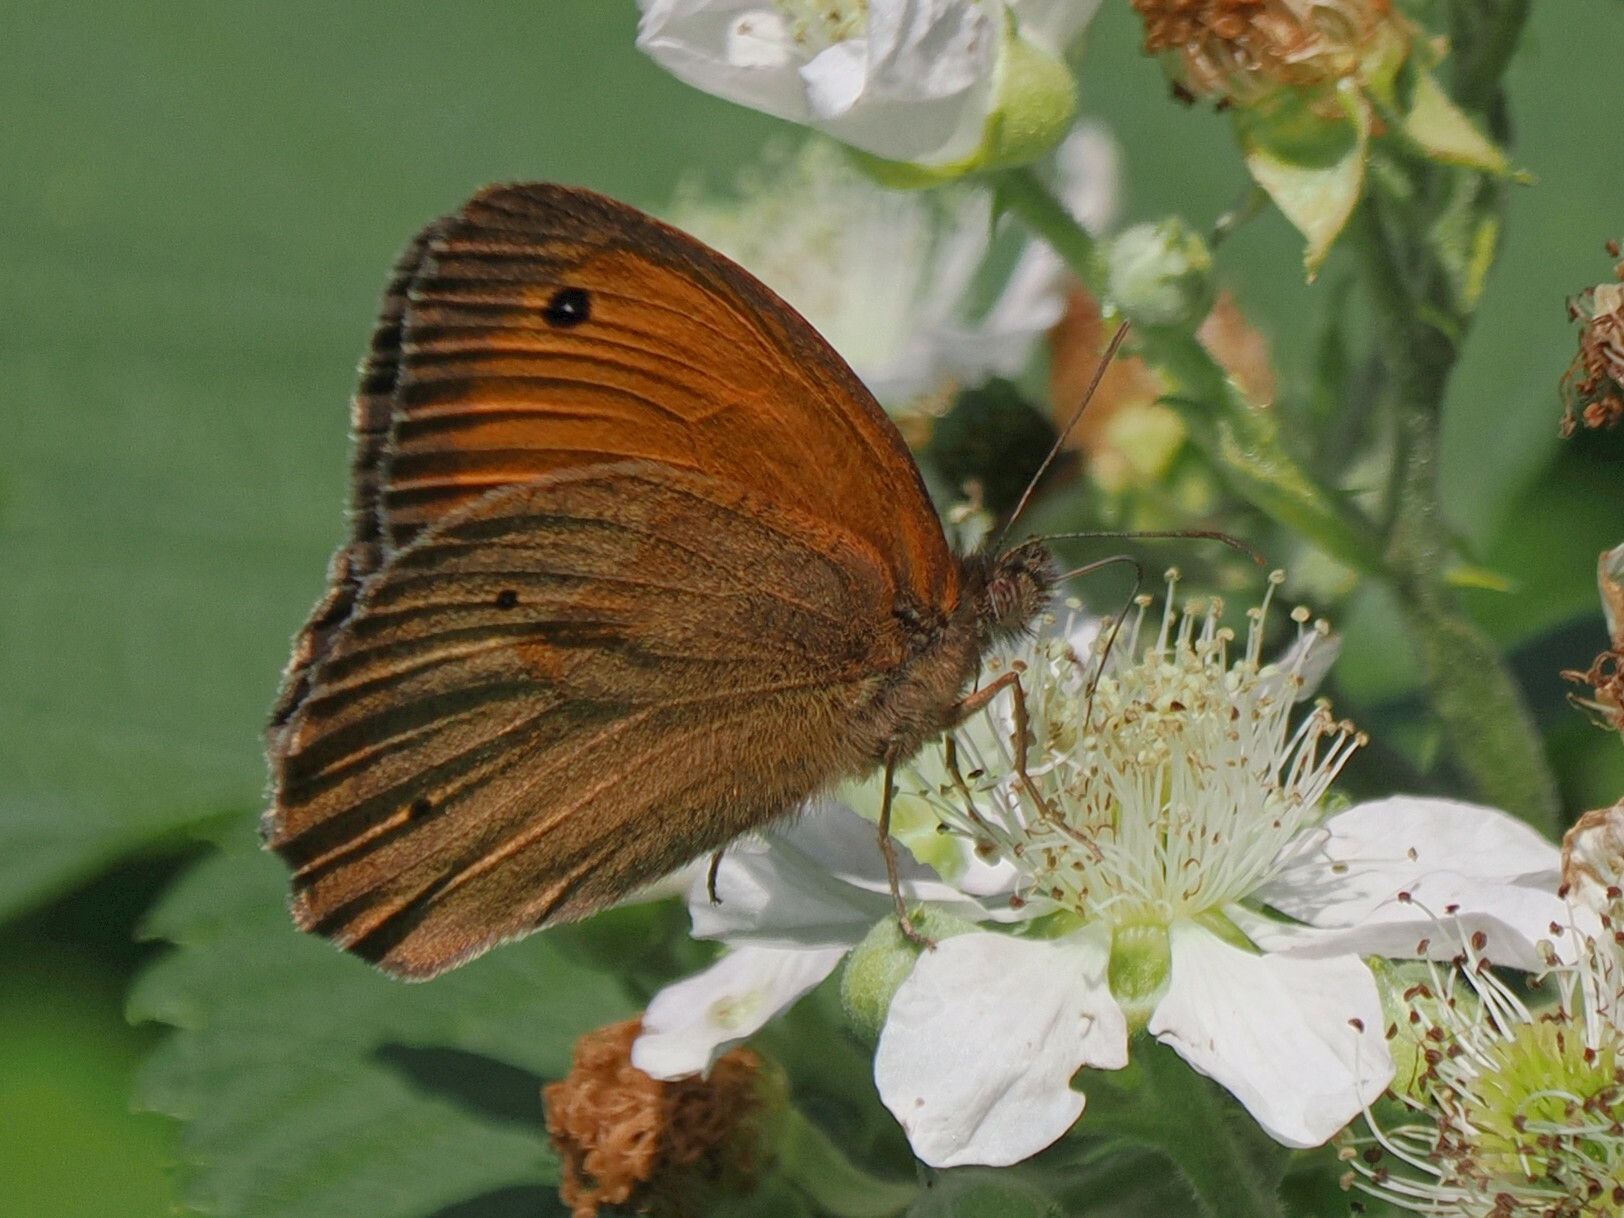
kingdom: Animalia
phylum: Arthropoda
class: Insecta
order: Lepidoptera
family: Nymphalidae
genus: Maniola
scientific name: Maniola jurtina
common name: Meadow brown
